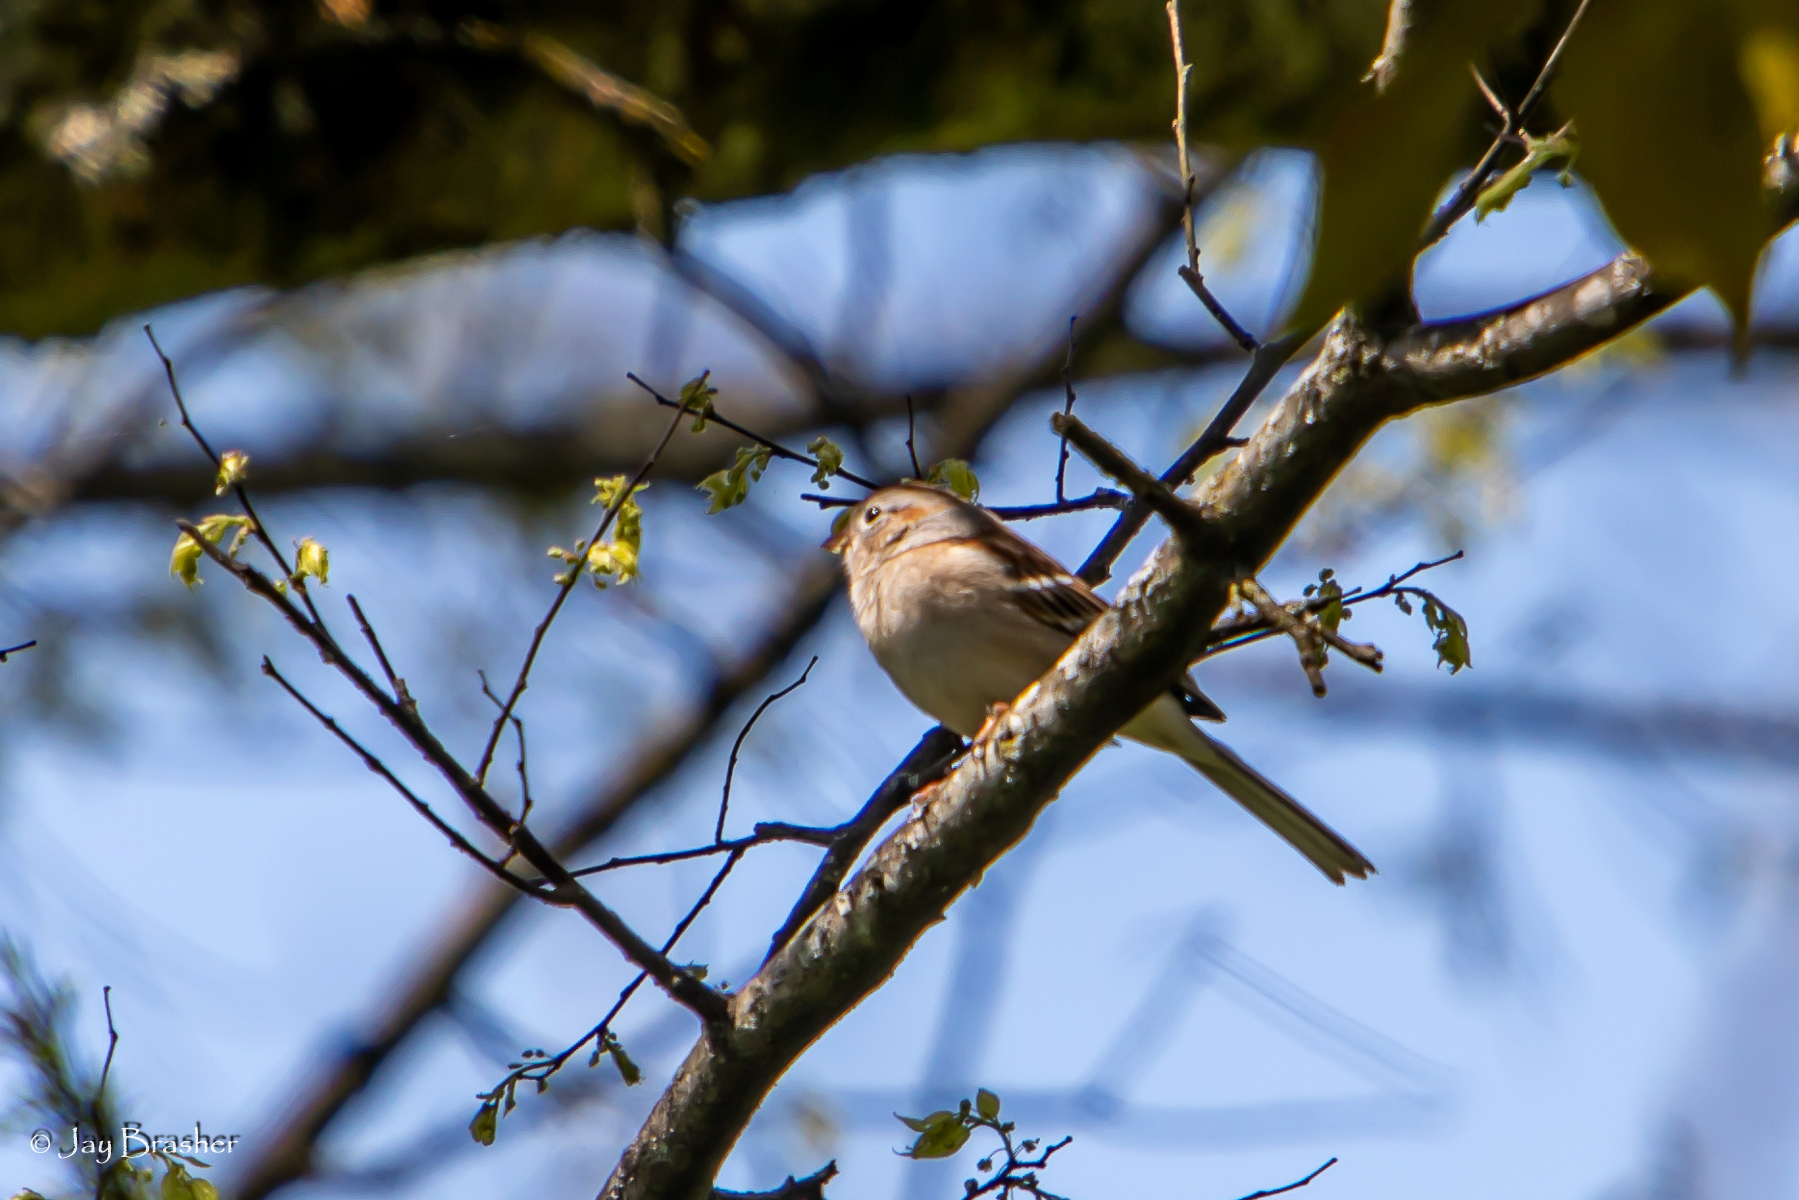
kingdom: Animalia
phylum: Chordata
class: Aves
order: Passeriformes
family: Passerellidae
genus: Spizella
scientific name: Spizella pusilla
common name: Field sparrow
